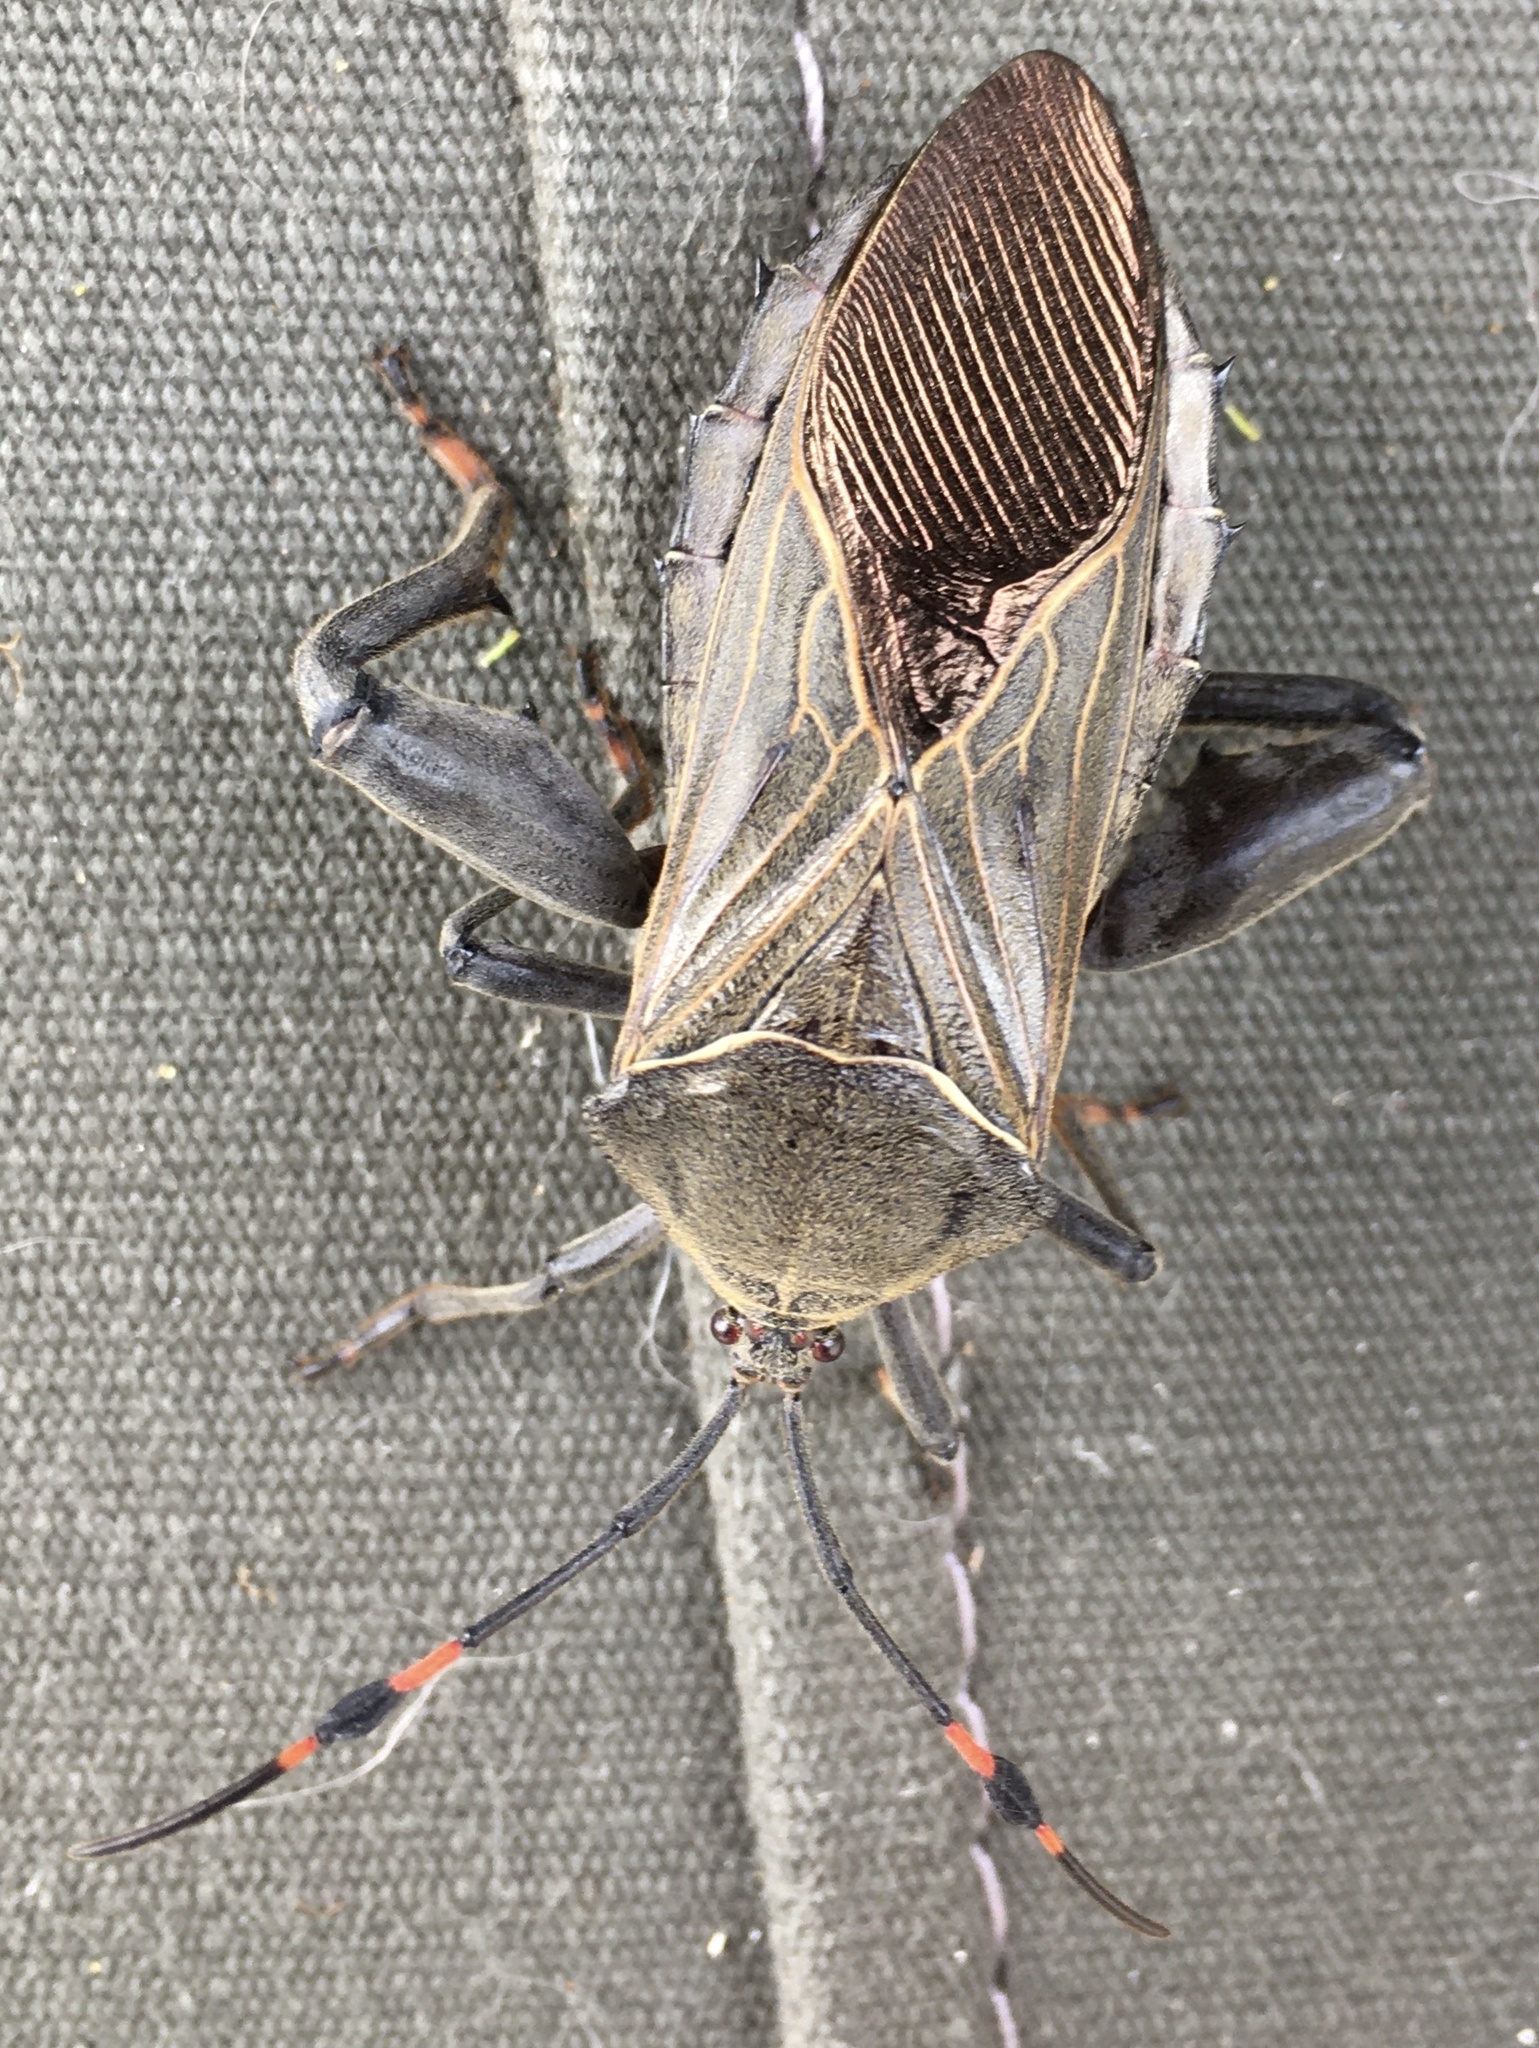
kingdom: Animalia
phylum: Arthropoda
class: Insecta
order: Hemiptera
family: Coreidae
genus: Pachylis
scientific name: Pachylis nervosus
